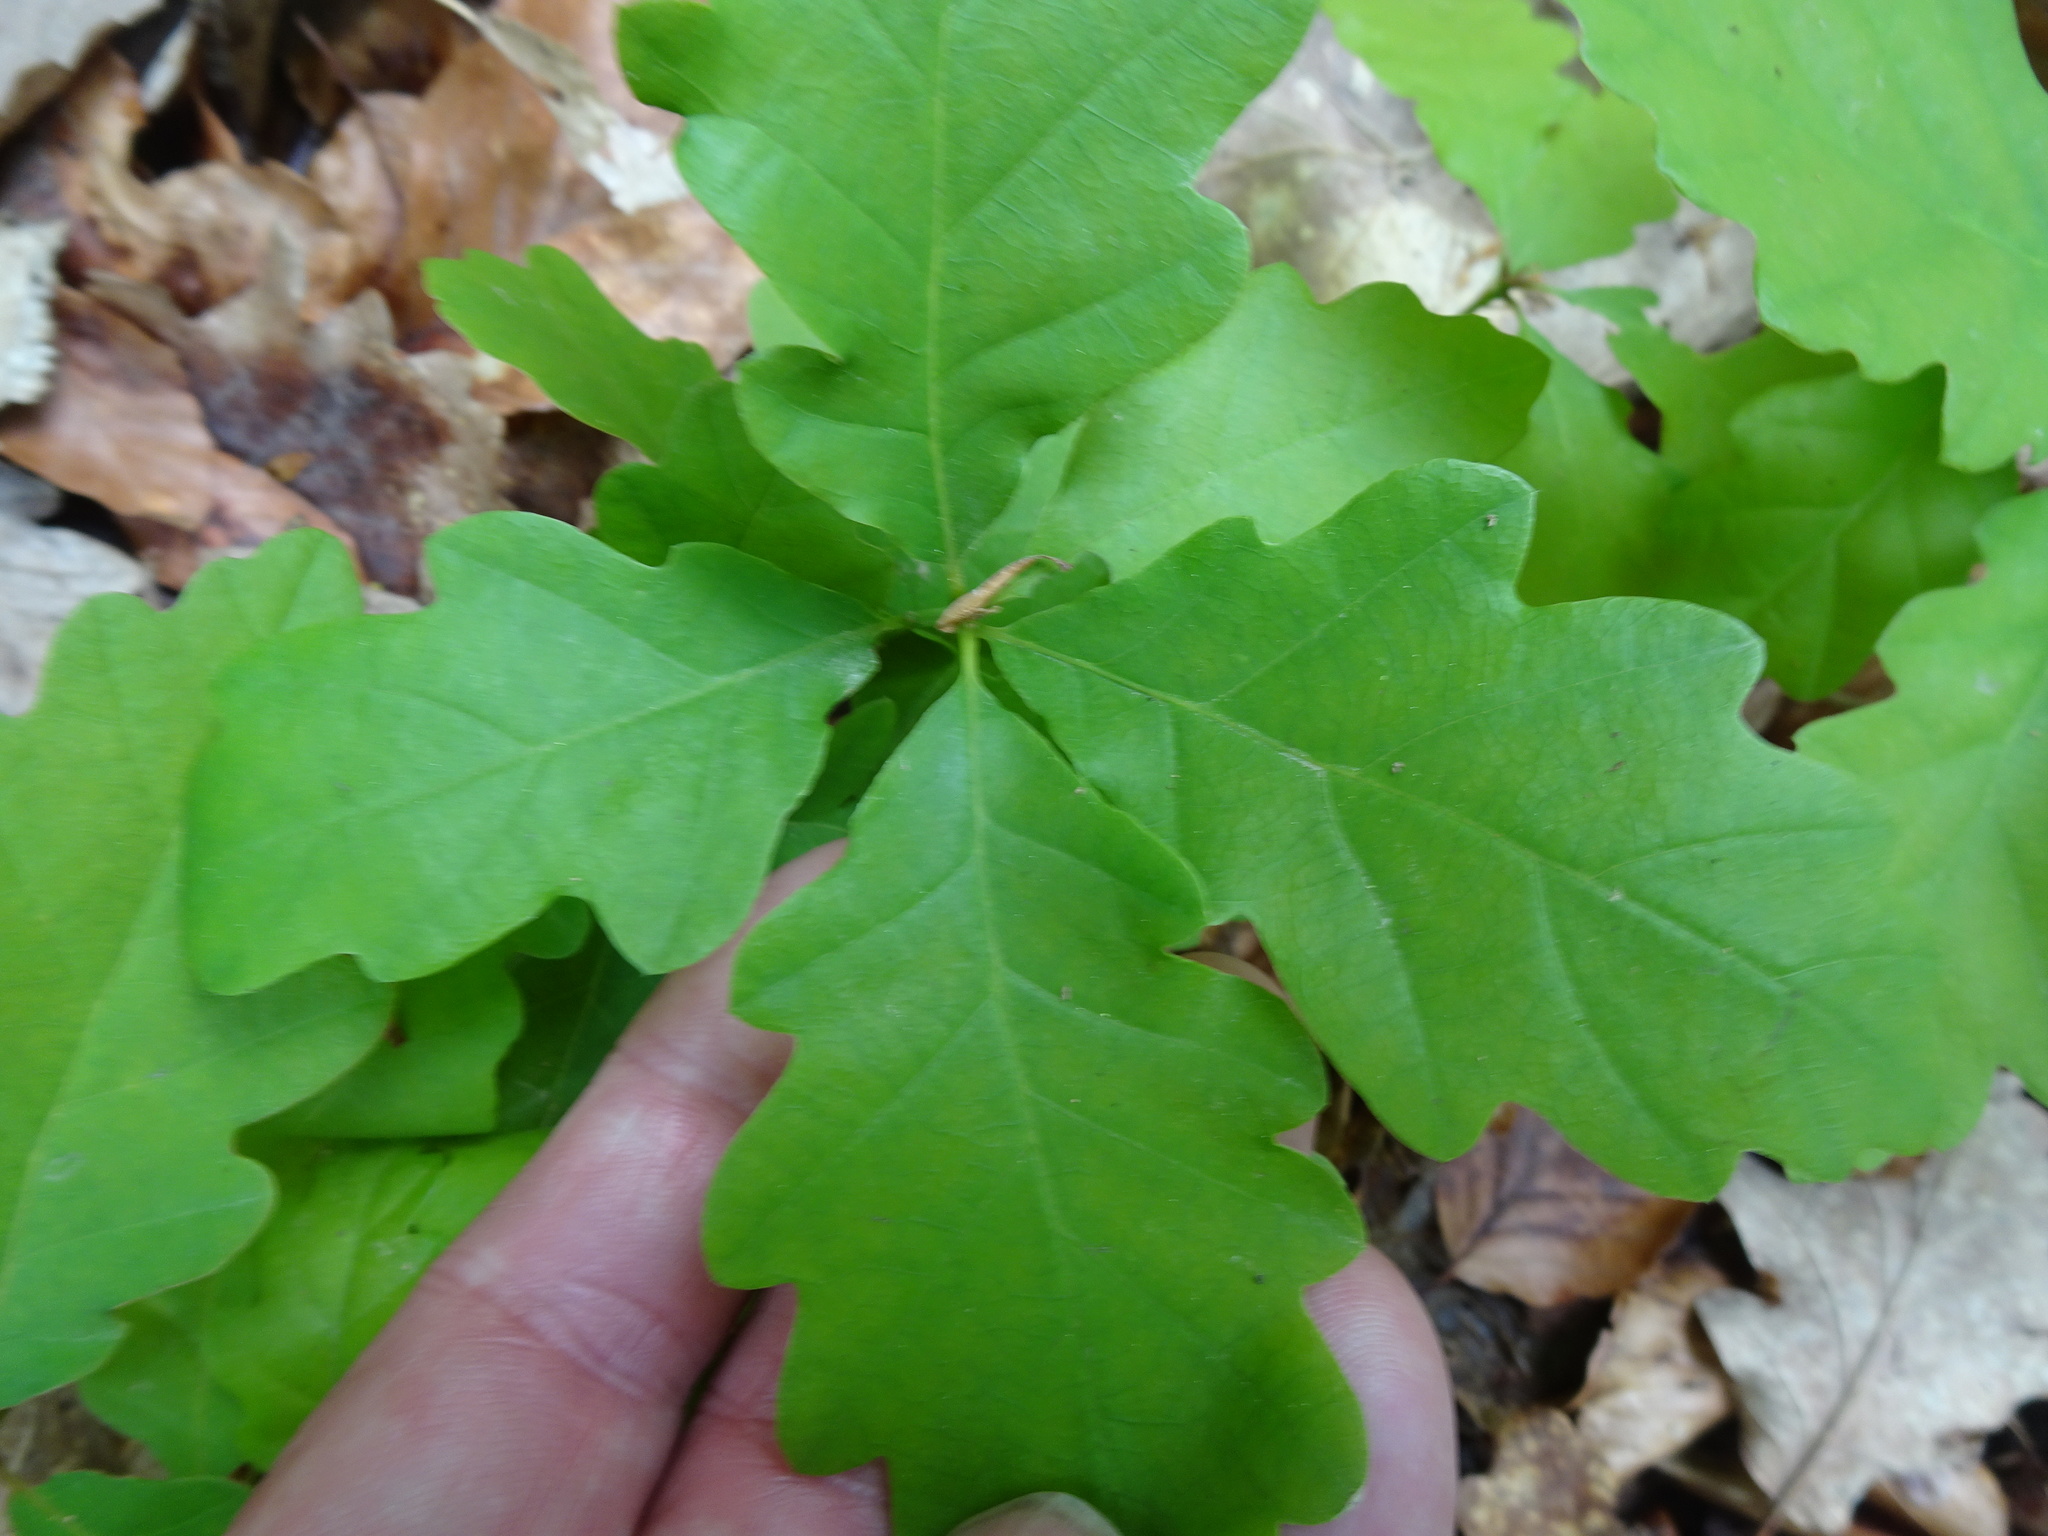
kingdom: Plantae
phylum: Tracheophyta
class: Magnoliopsida
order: Fagales
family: Fagaceae
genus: Quercus
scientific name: Quercus petraea
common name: Sessile oak
